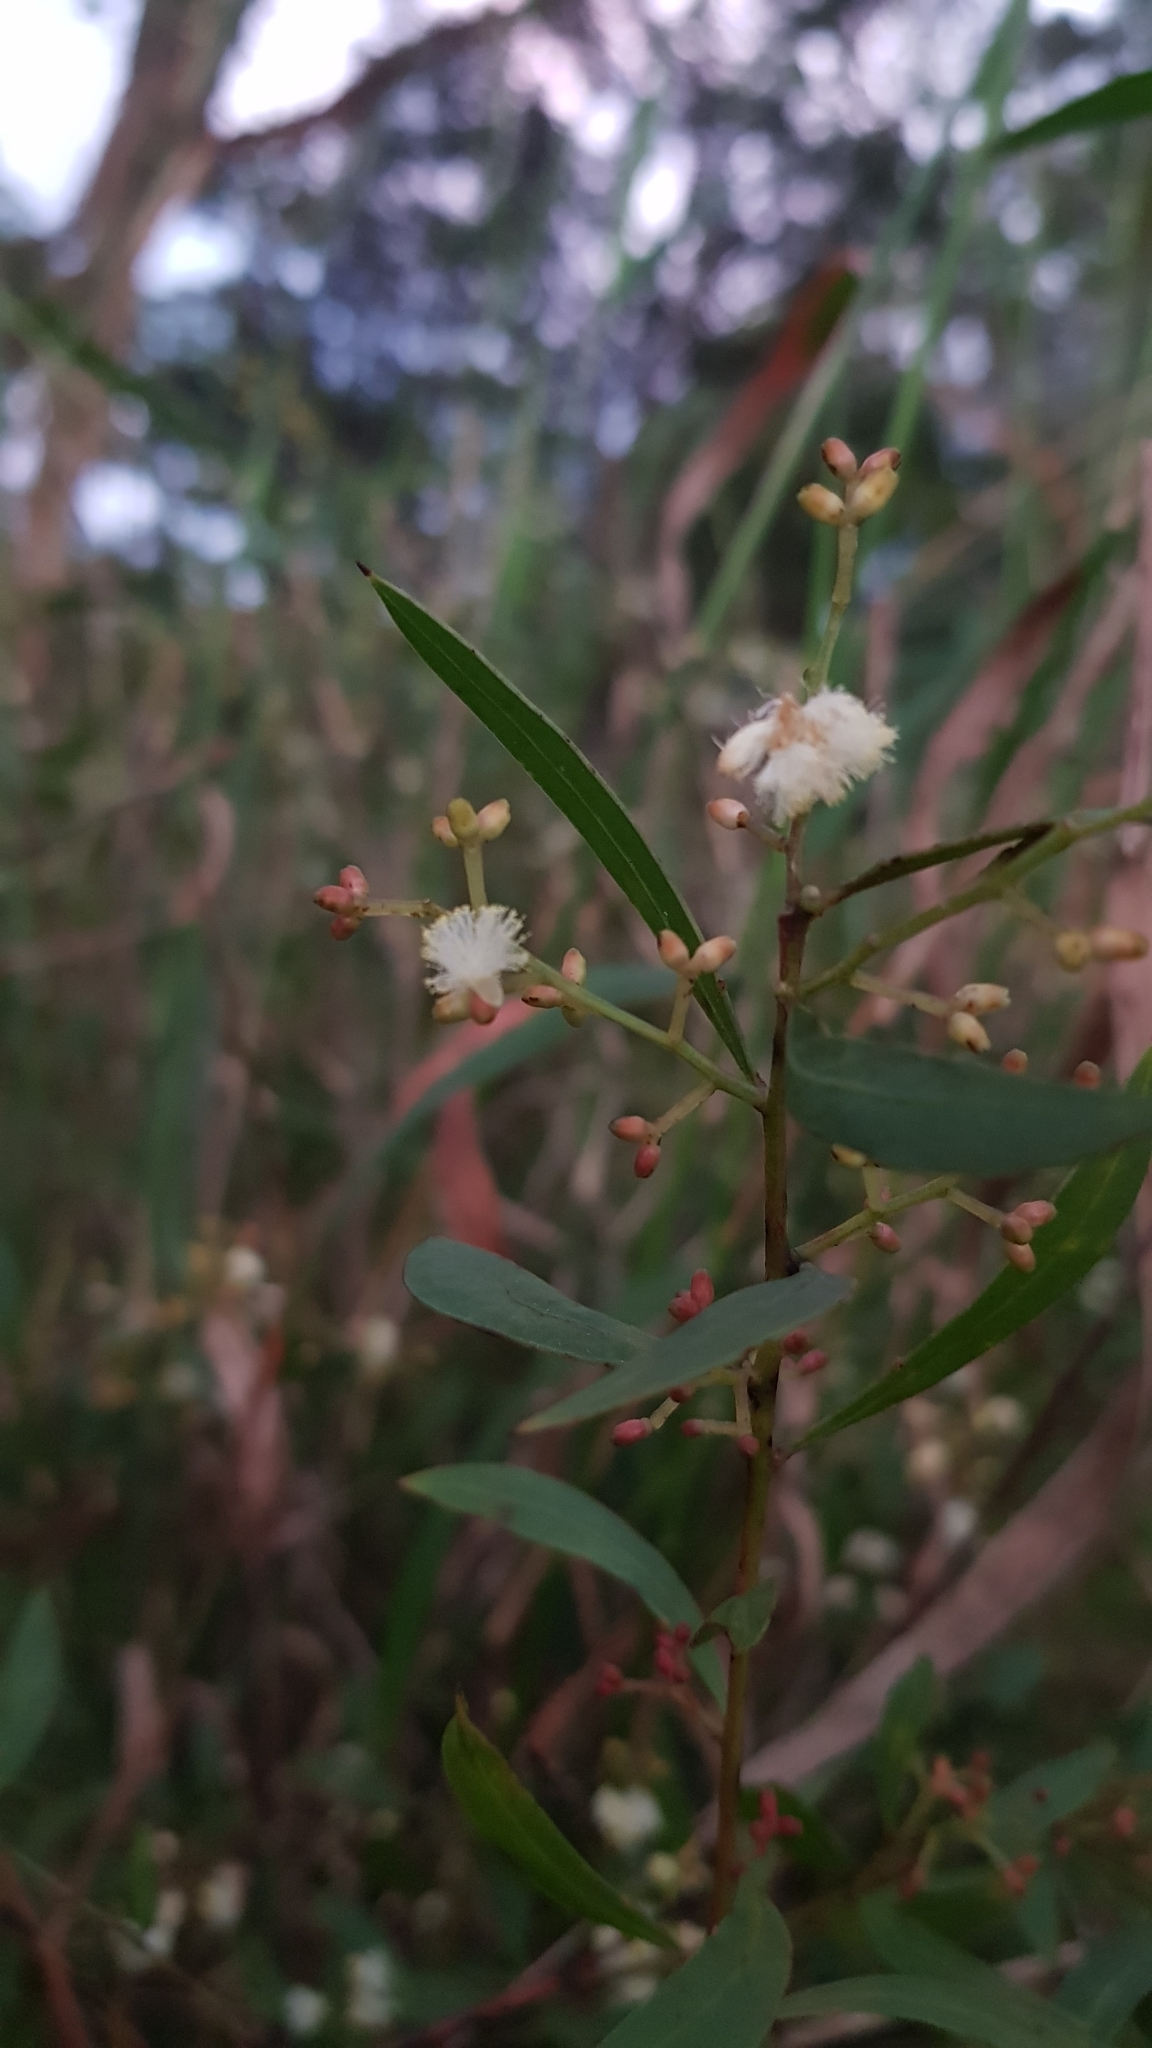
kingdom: Plantae
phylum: Tracheophyta
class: Magnoliopsida
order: Fabales
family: Fabaceae
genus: Acacia
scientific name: Acacia myrtifolia
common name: Myrtle wattle
